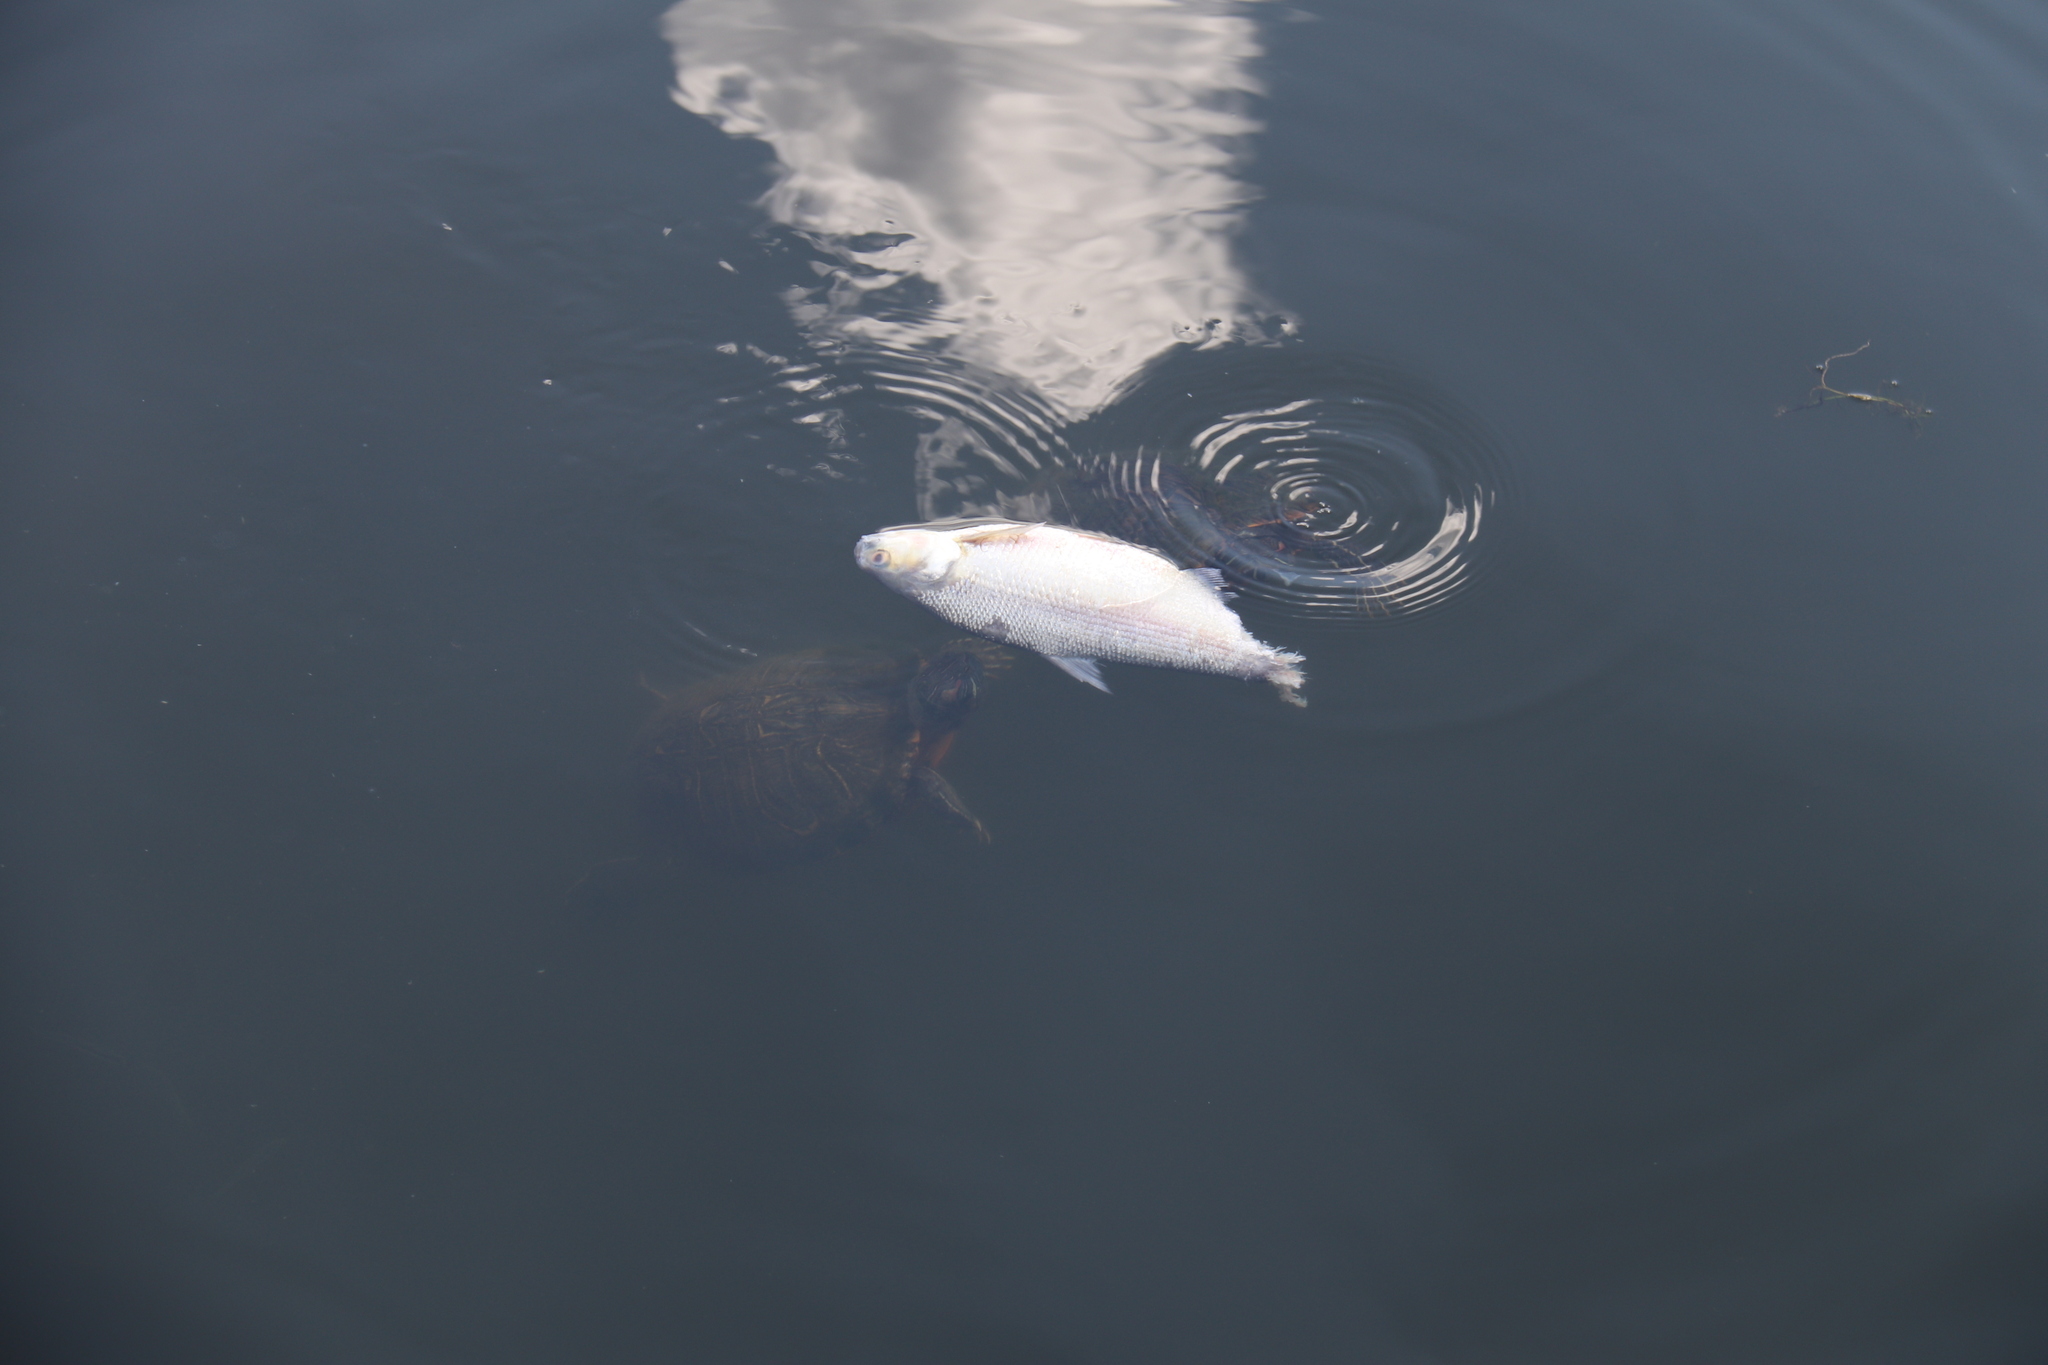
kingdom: Animalia
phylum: Chordata
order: Clupeiformes
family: Clupeidae
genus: Dorosoma
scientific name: Dorosoma cepedianum
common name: Gizzard shad
